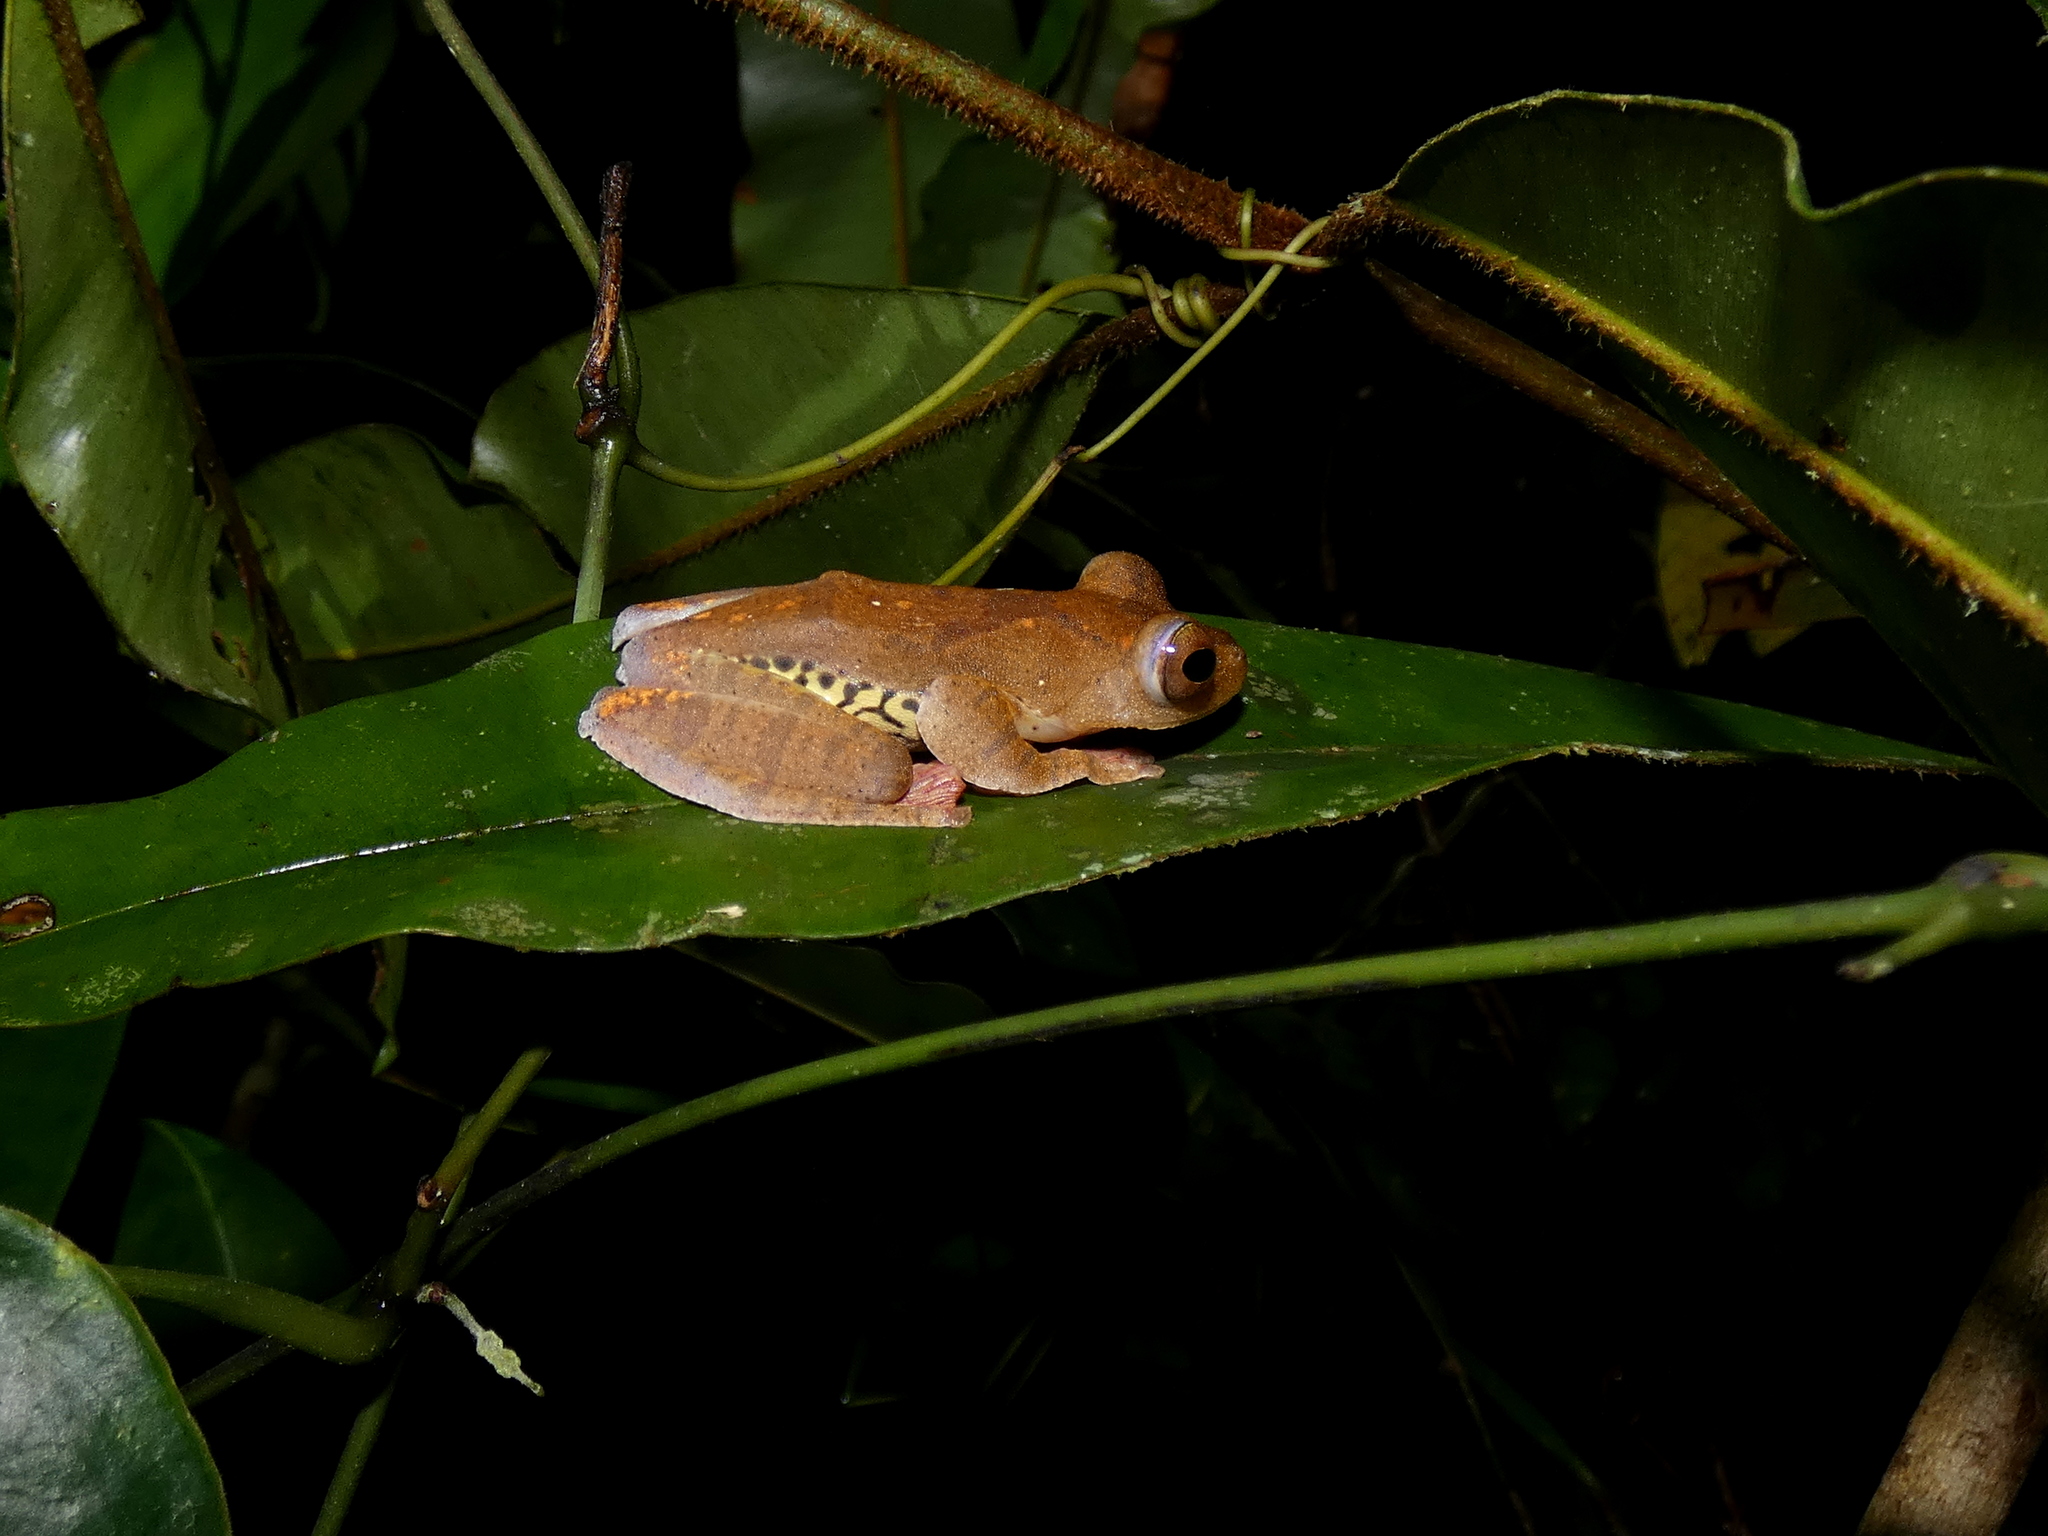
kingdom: Animalia
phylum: Chordata
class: Amphibia
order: Anura
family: Rhacophoridae
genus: Rhacophorus
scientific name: Rhacophorus pardalis
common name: Harlequin tree frog
